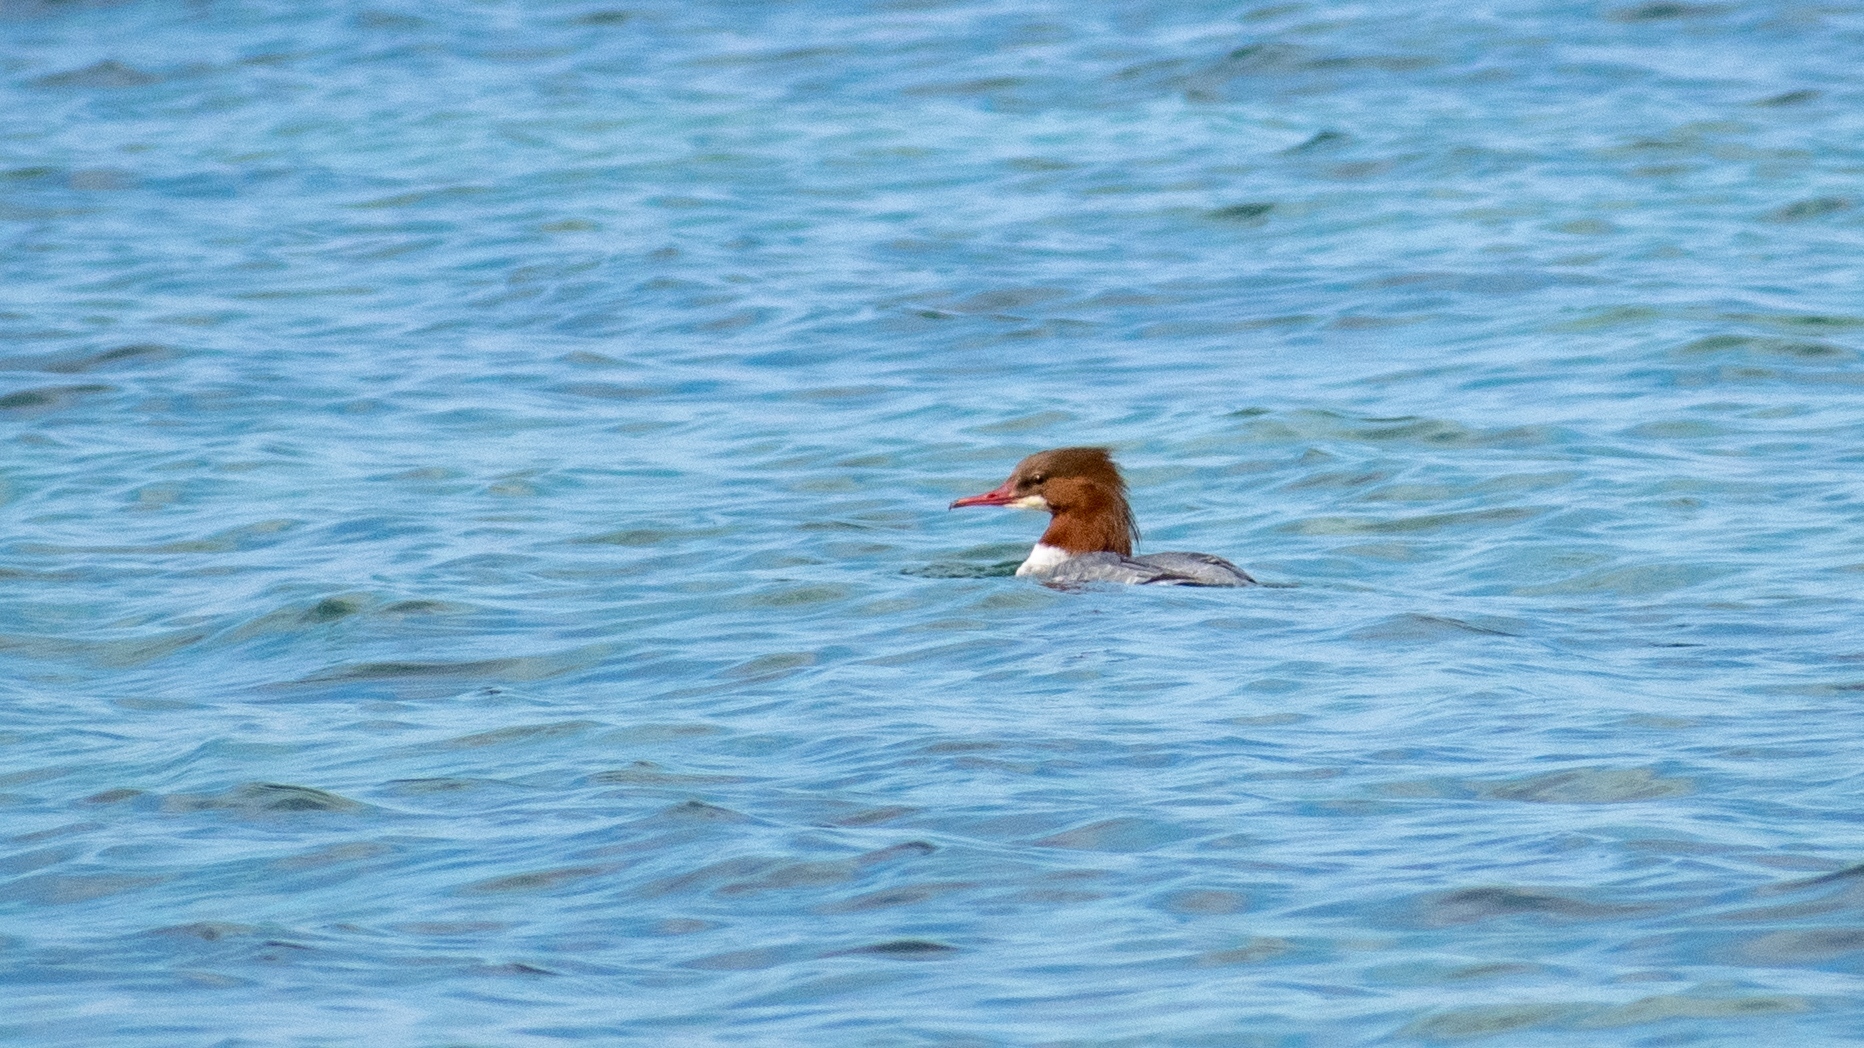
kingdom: Animalia
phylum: Chordata
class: Aves
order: Anseriformes
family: Anatidae
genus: Mergus
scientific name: Mergus merganser
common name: Common merganser
